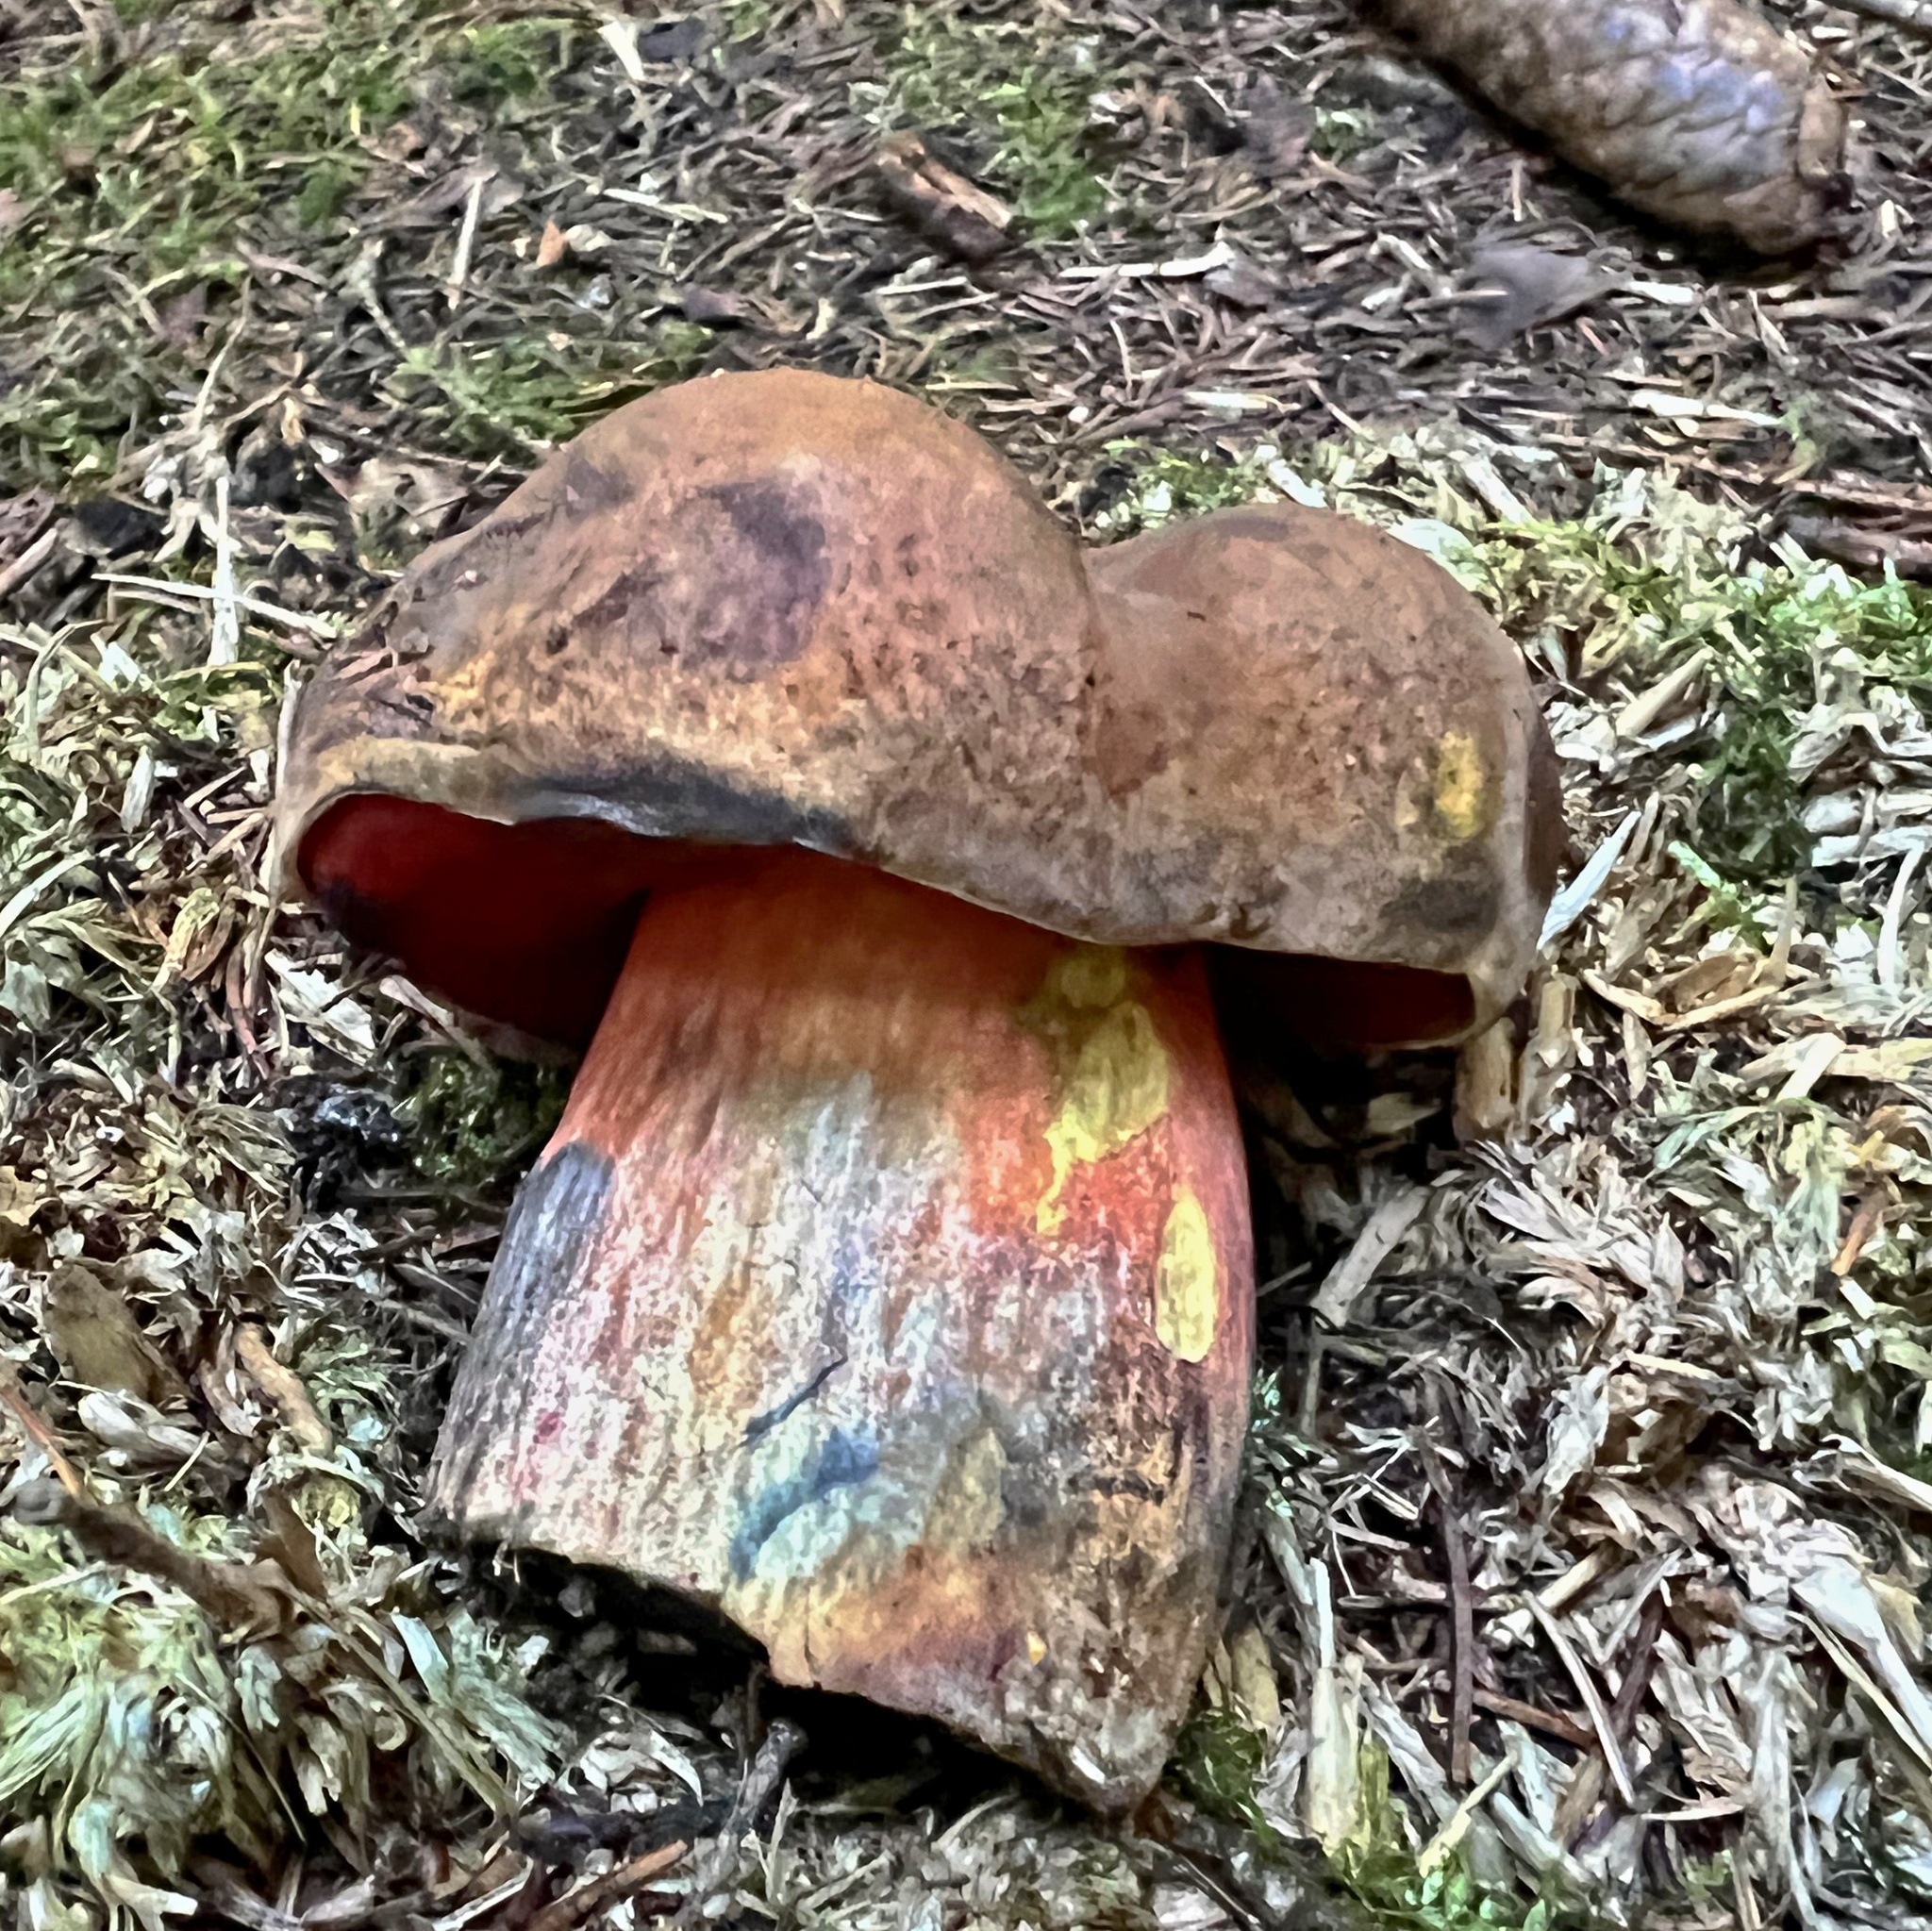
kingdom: Fungi
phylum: Basidiomycota
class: Agaricomycetes
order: Boletales
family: Boletaceae
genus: Neoboletus
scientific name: Neoboletus luridiformis
